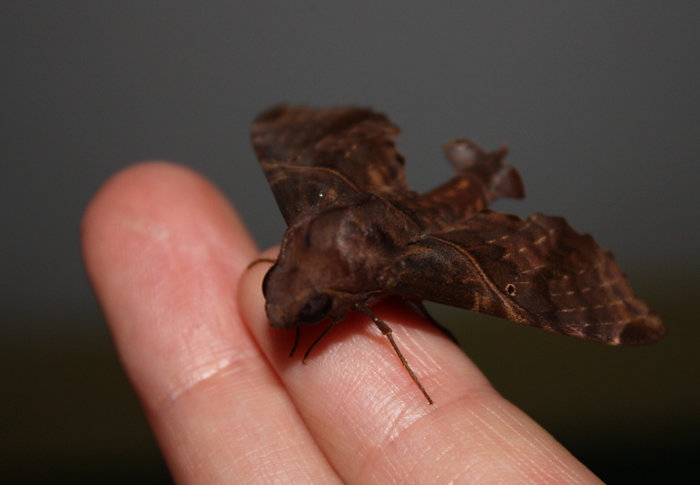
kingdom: Animalia
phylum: Arthropoda
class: Insecta
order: Lepidoptera
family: Sphingidae
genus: Enyo
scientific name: Enyo latipennis
